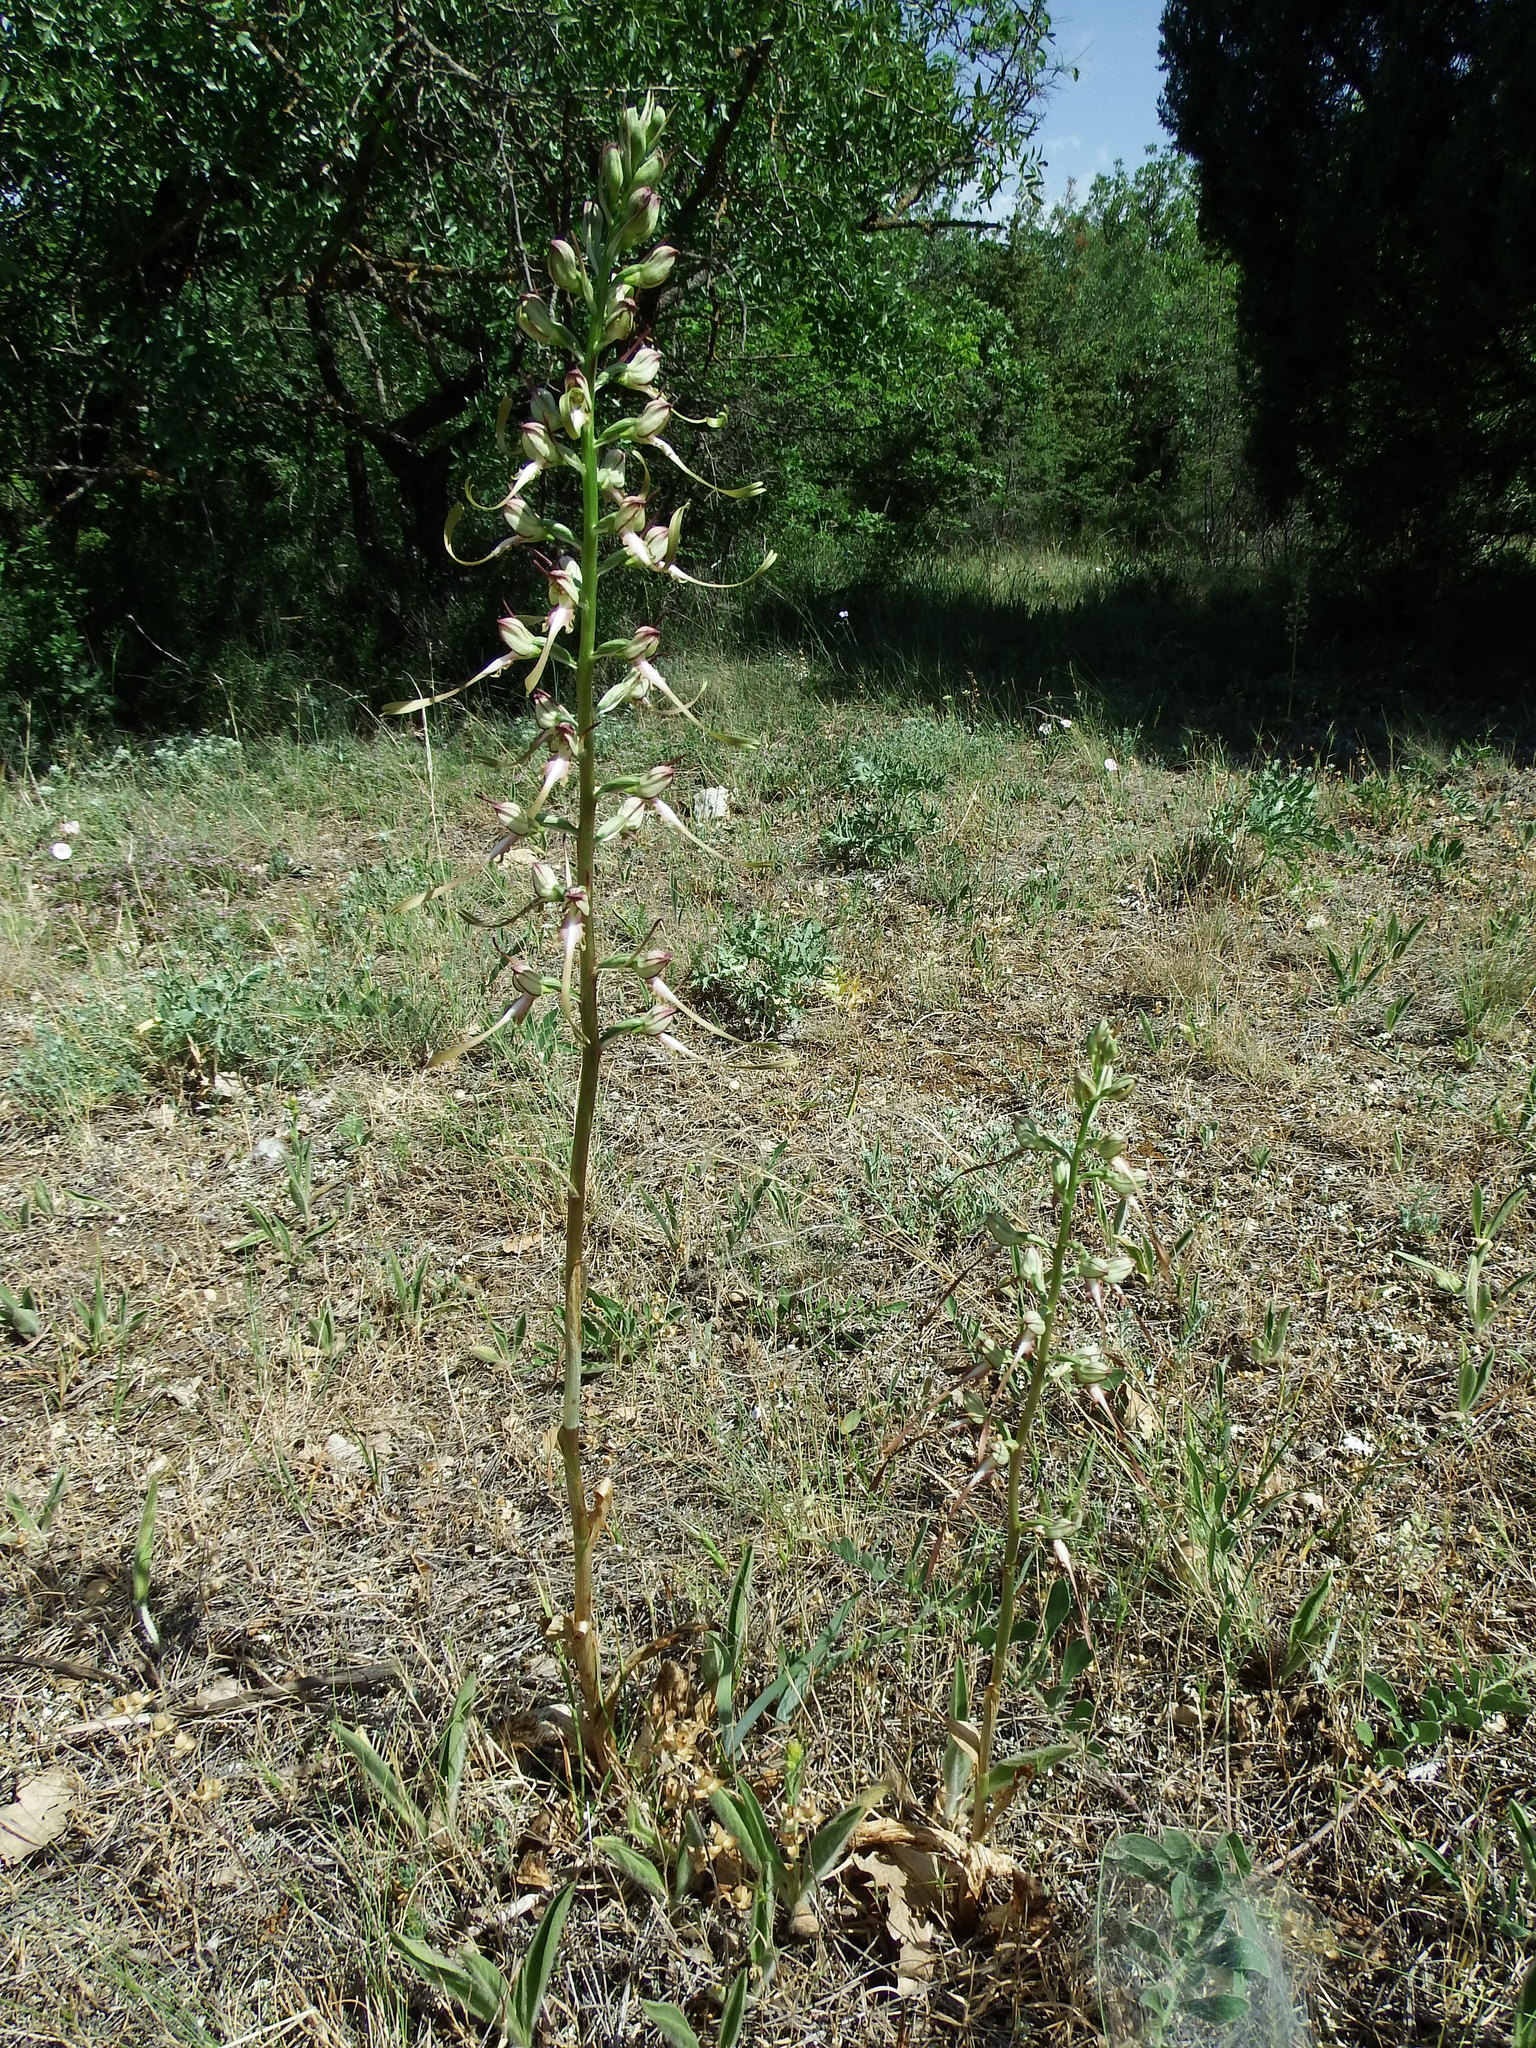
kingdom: Plantae
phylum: Tracheophyta
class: Liliopsida
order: Asparagales
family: Orchidaceae
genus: Himantoglossum
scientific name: Himantoglossum caprinum
